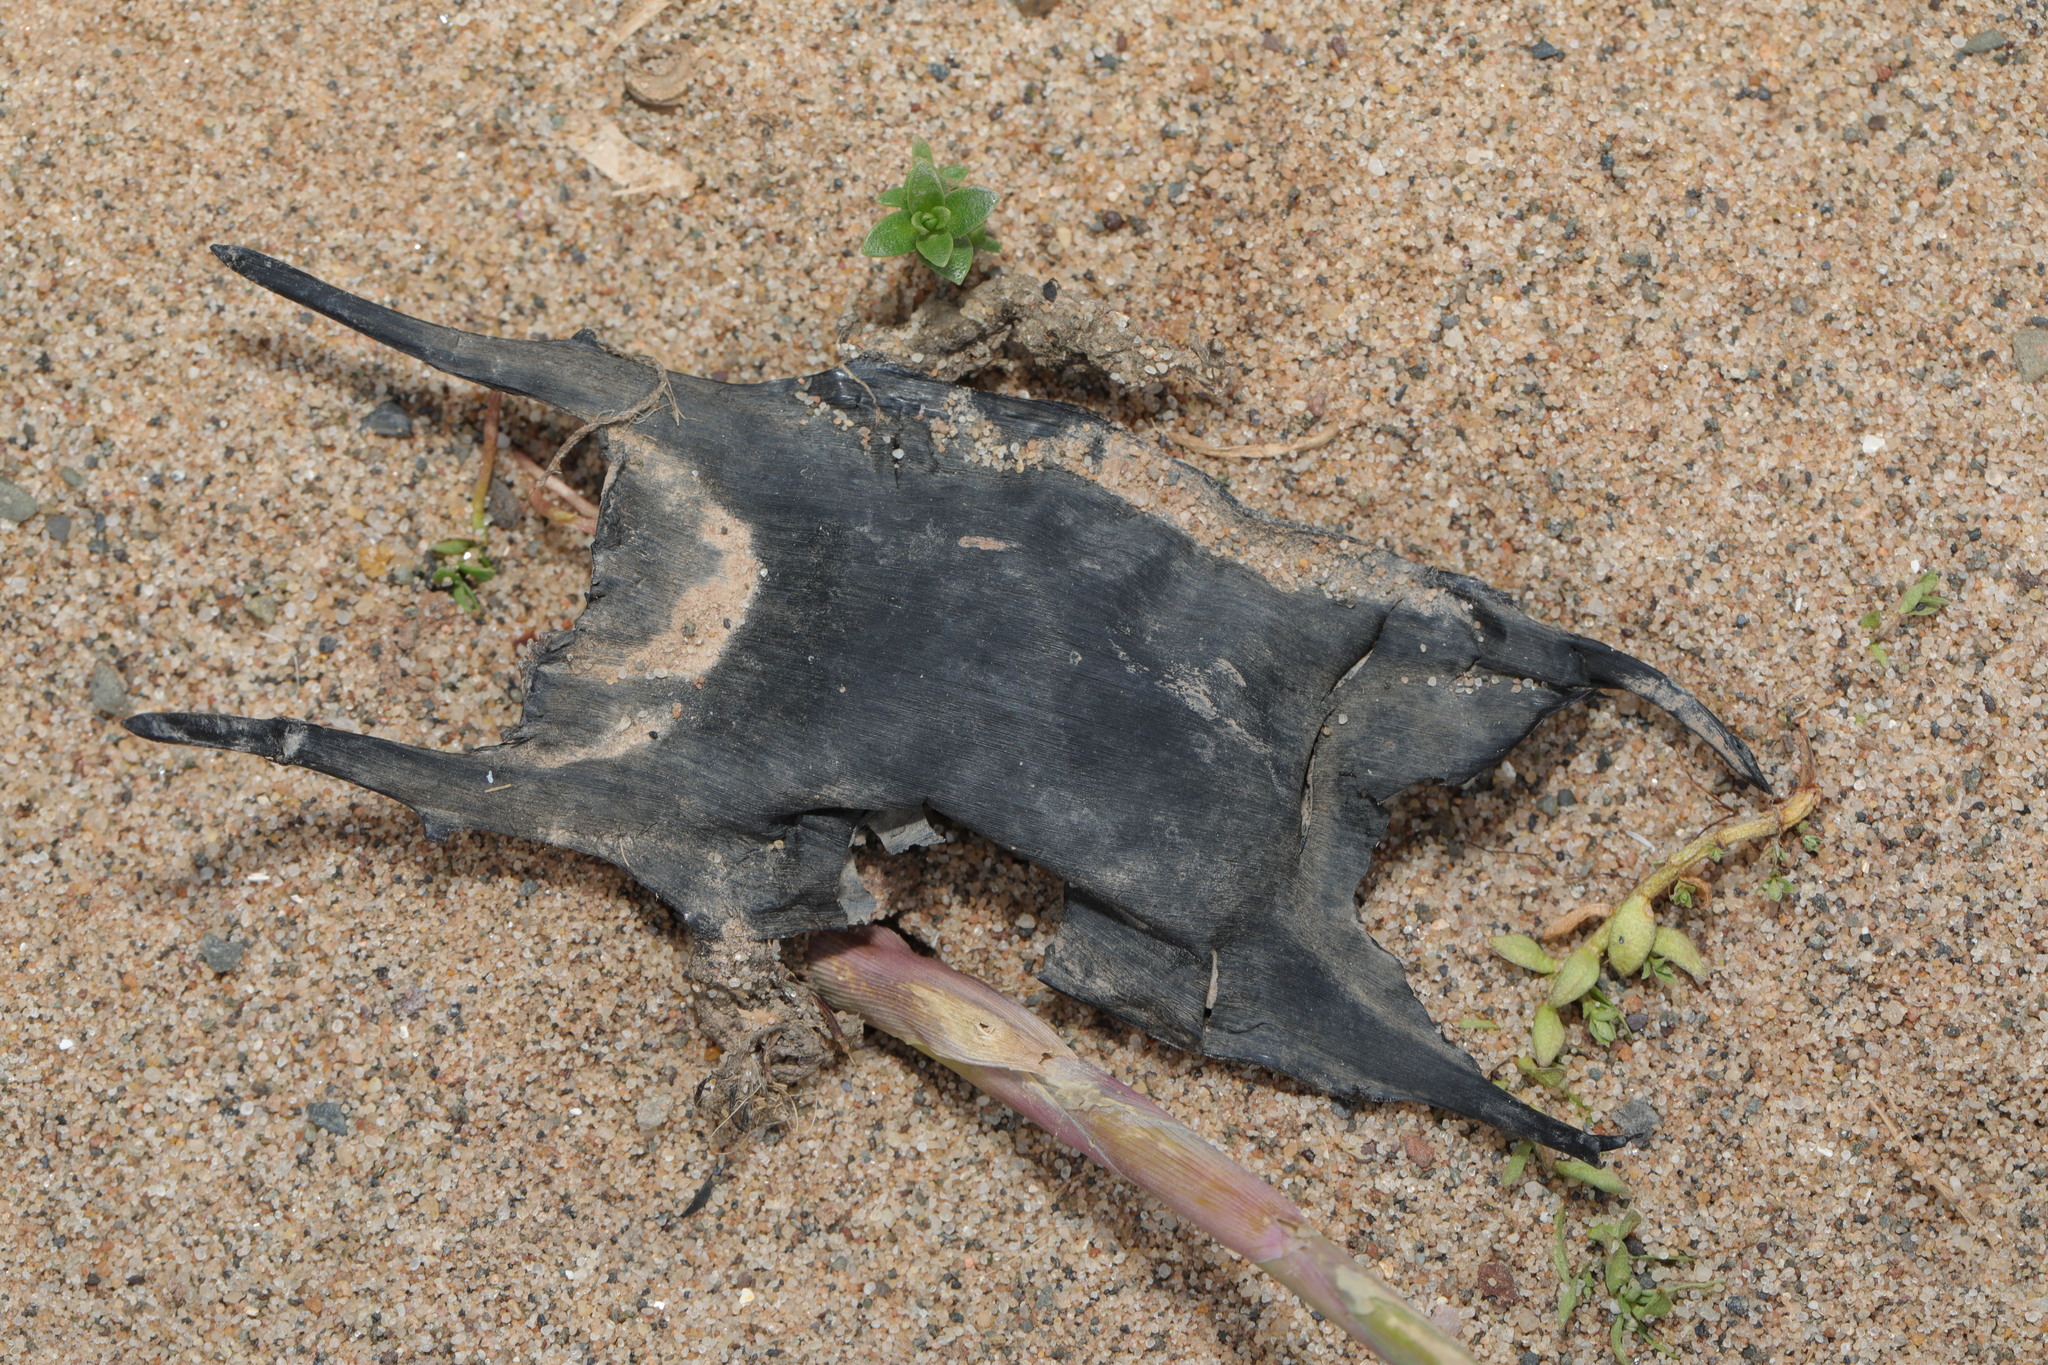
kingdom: Animalia
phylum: Chordata
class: Elasmobranchii
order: Rajiformes
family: Rajidae
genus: Raja
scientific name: Raja clavata
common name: Thornback ray
